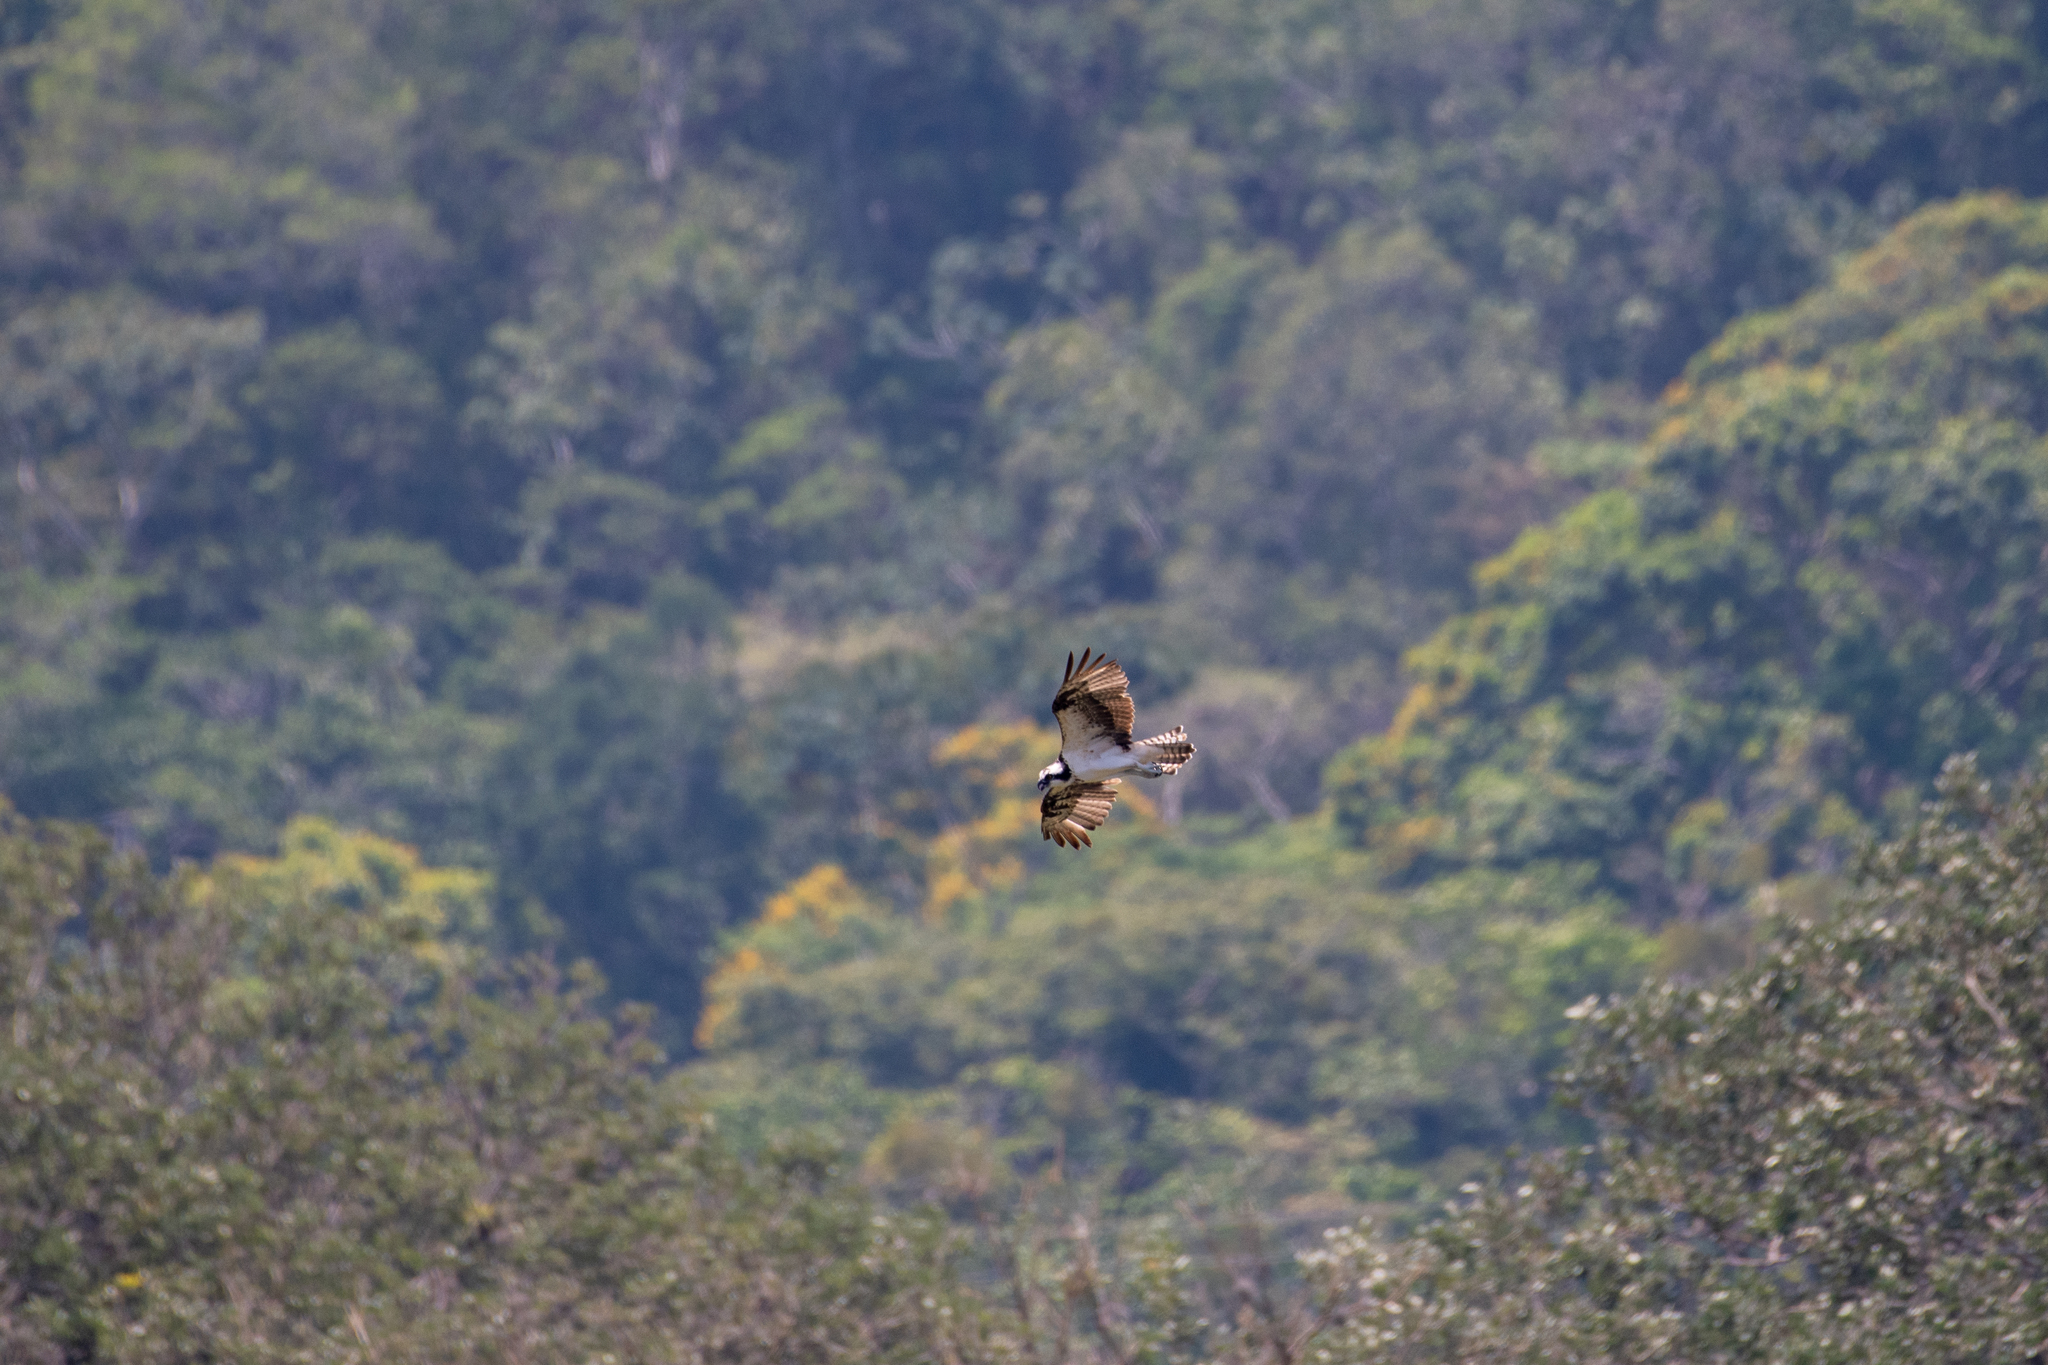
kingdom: Animalia
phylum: Chordata
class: Aves
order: Accipitriformes
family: Pandionidae
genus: Pandion
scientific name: Pandion haliaetus
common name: Osprey
